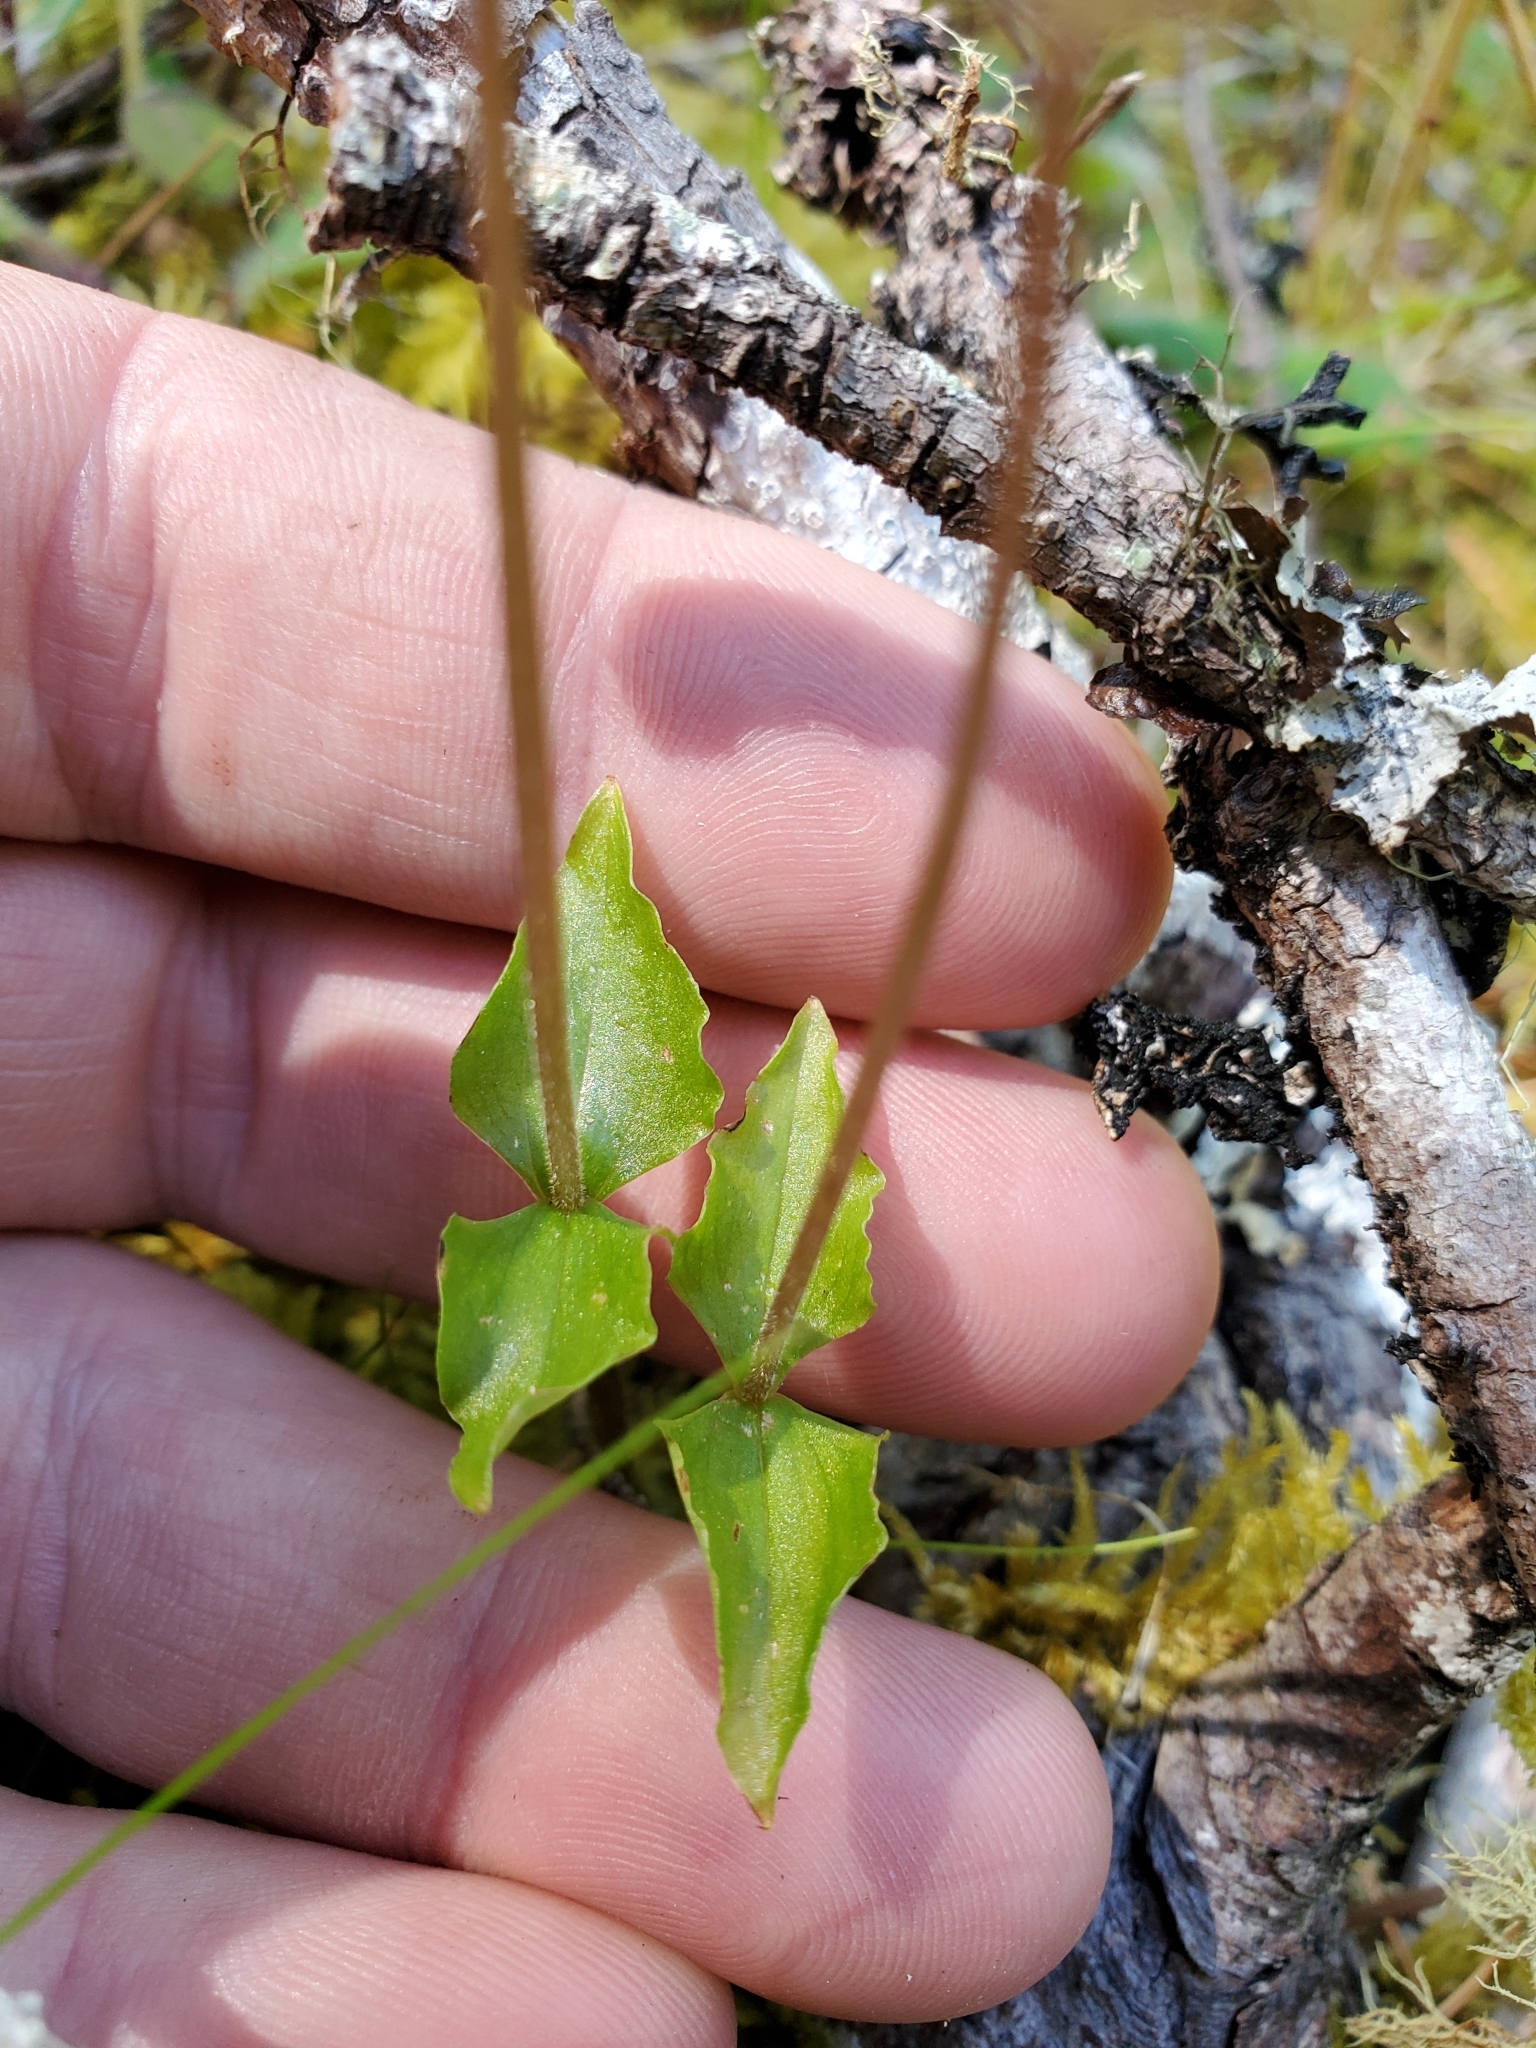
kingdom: Plantae
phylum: Tracheophyta
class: Liliopsida
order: Asparagales
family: Orchidaceae
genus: Neottia
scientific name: Neottia cordata
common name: Lesser twayblade
